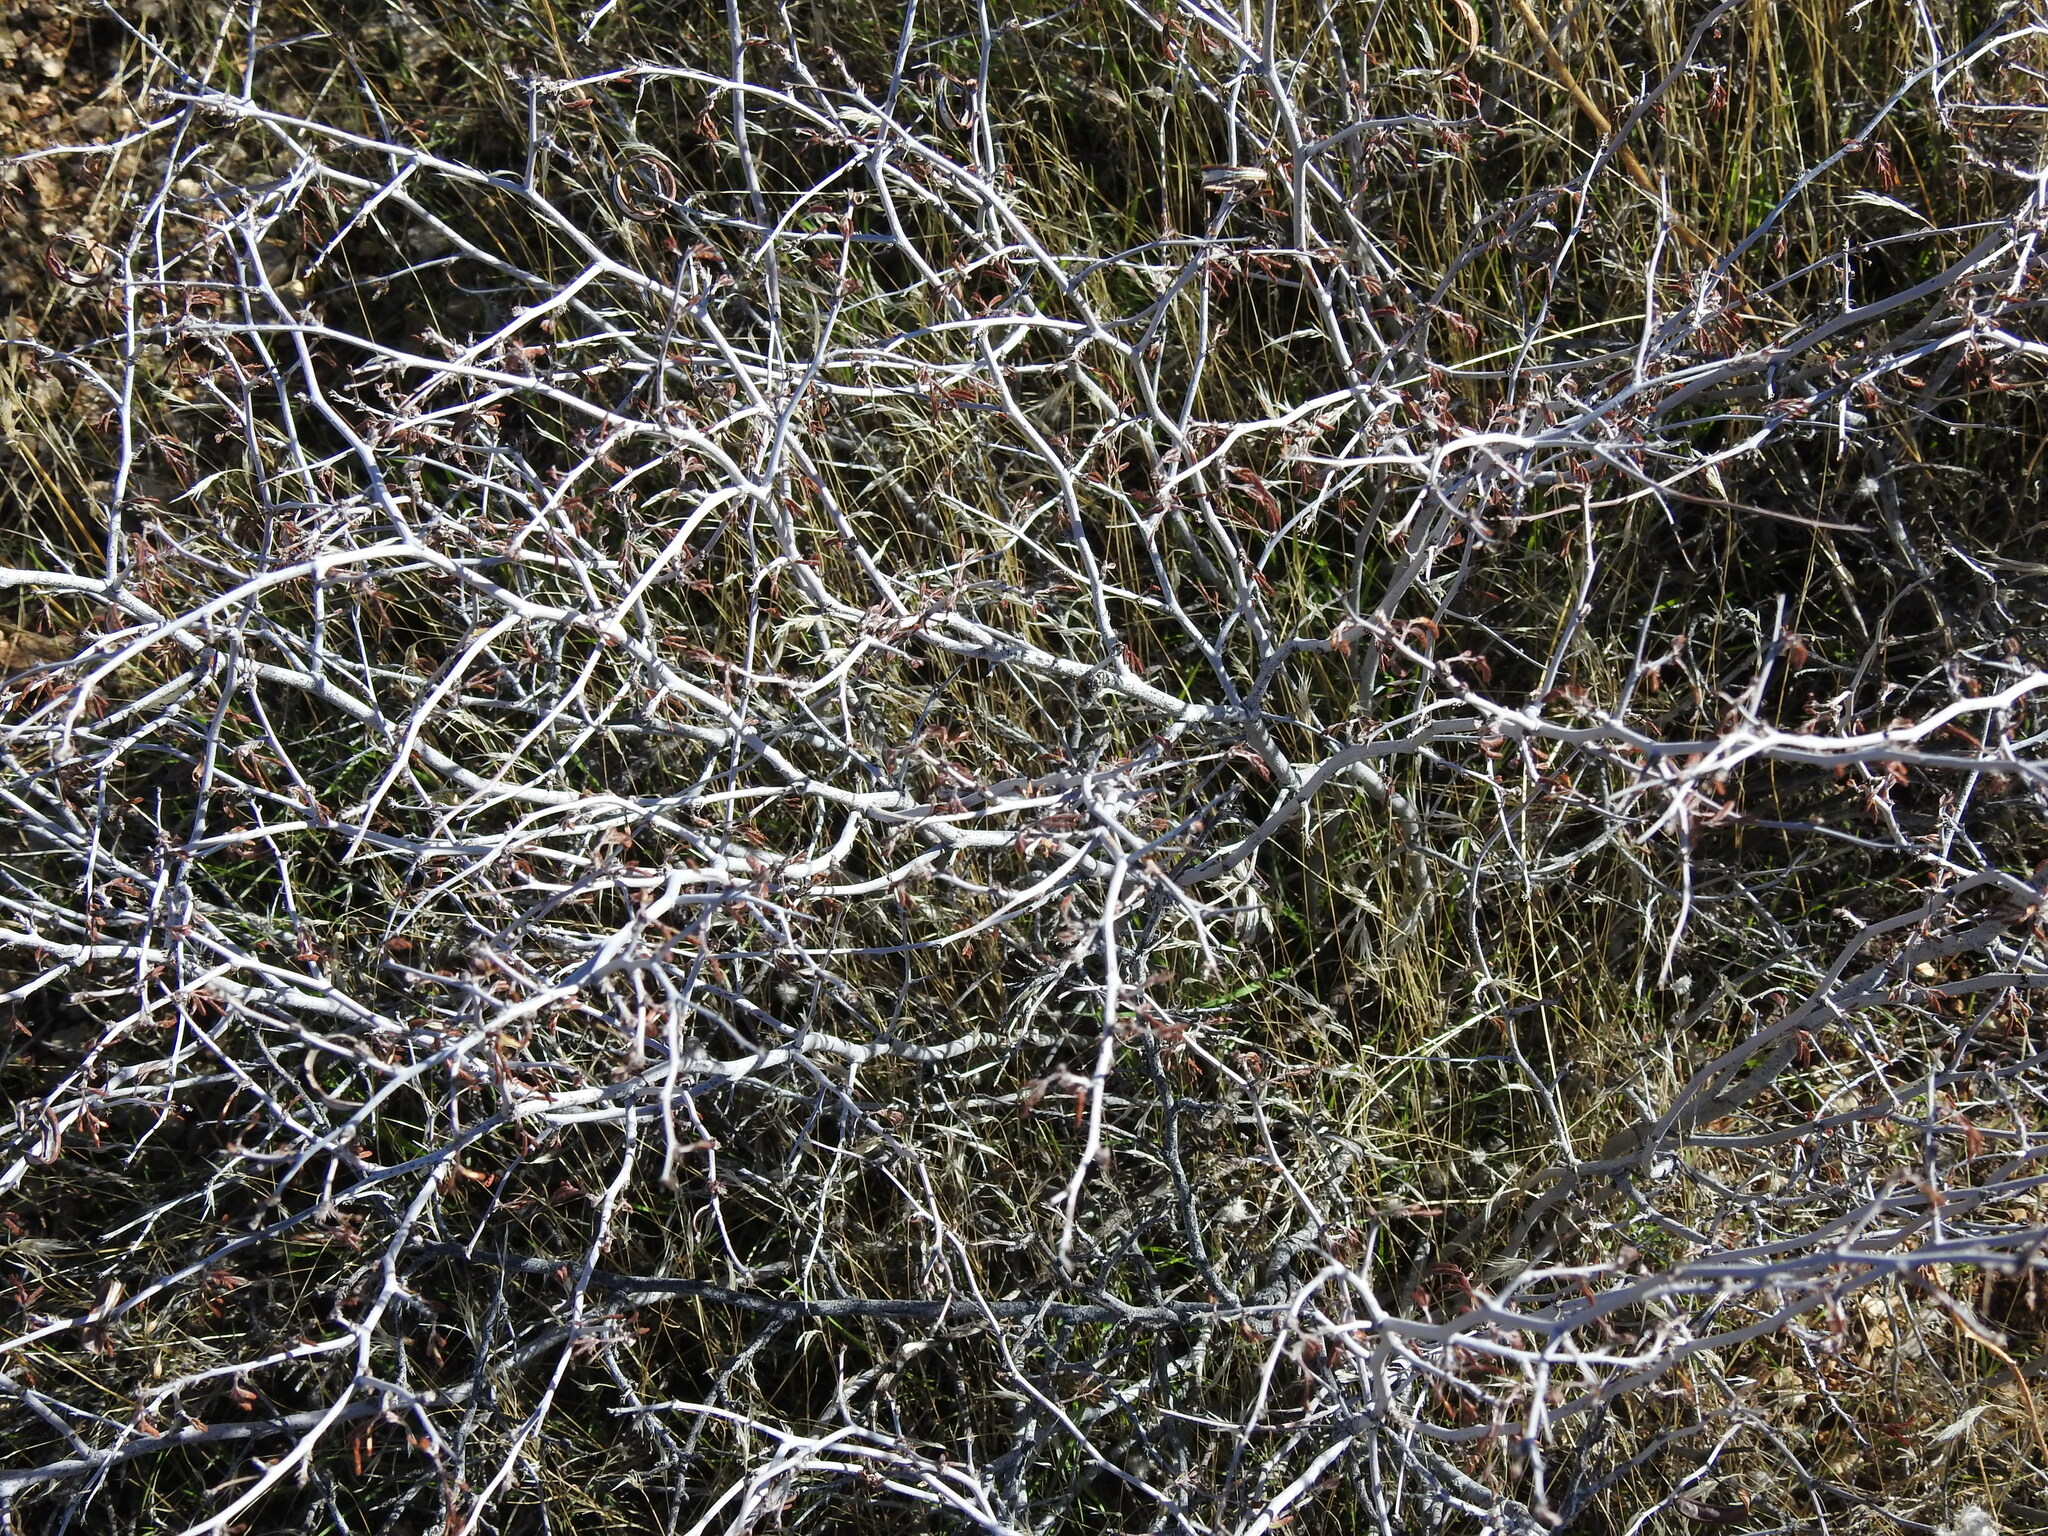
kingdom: Plantae
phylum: Tracheophyta
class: Magnoliopsida
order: Fabales
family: Fabaceae
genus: Calliandra
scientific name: Calliandra eriophylla
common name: Fairy-duster
